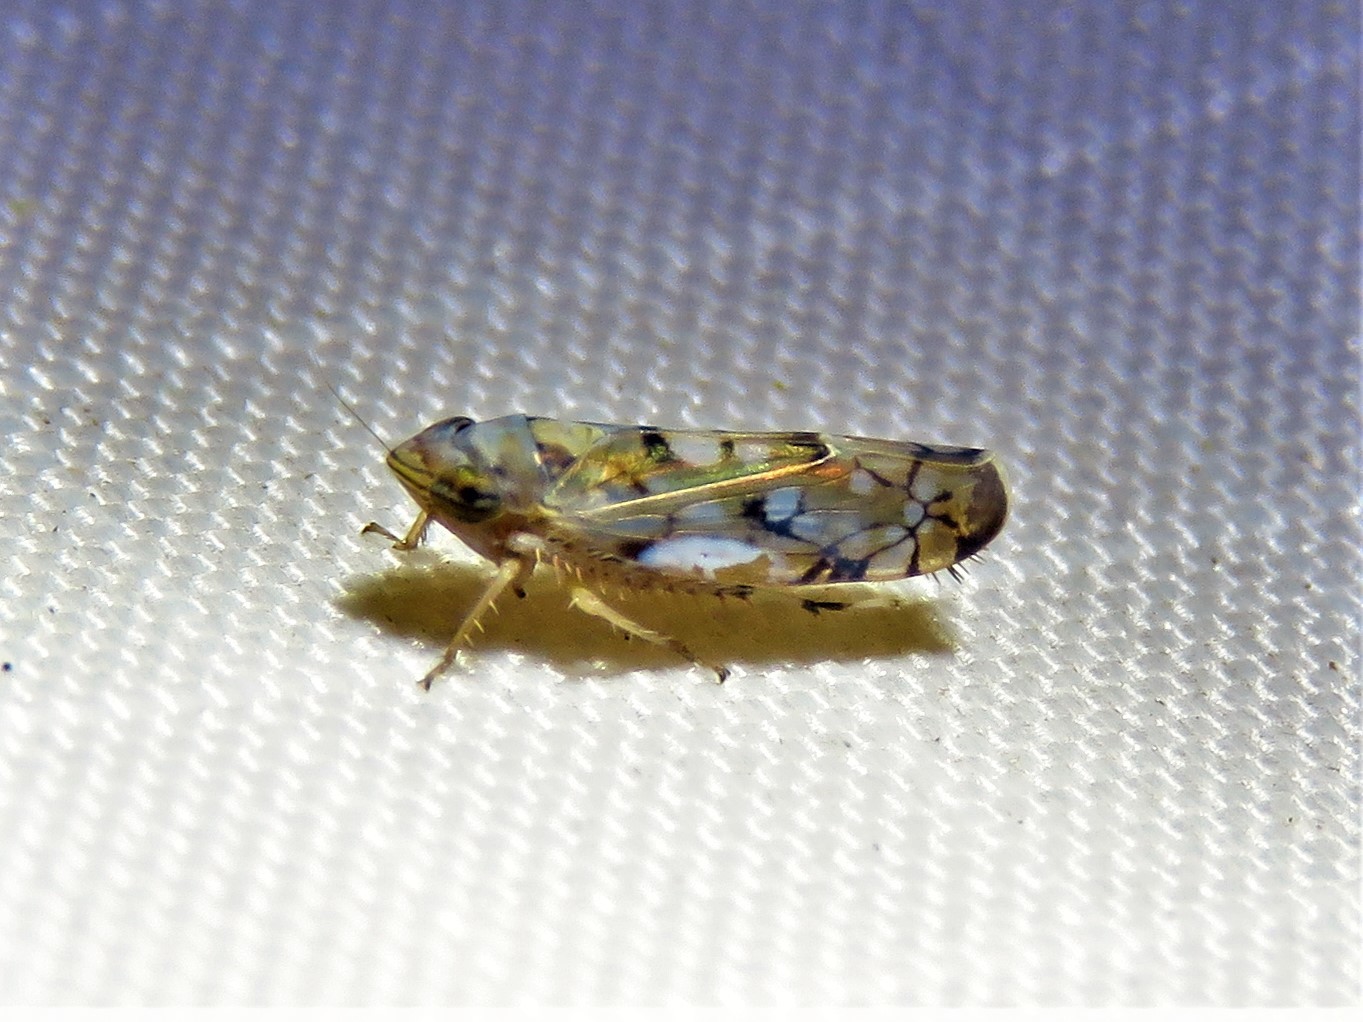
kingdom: Animalia
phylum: Arthropoda
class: Insecta
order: Hemiptera
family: Cicadellidae
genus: Scaphoideus
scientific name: Scaphoideus opalinus
